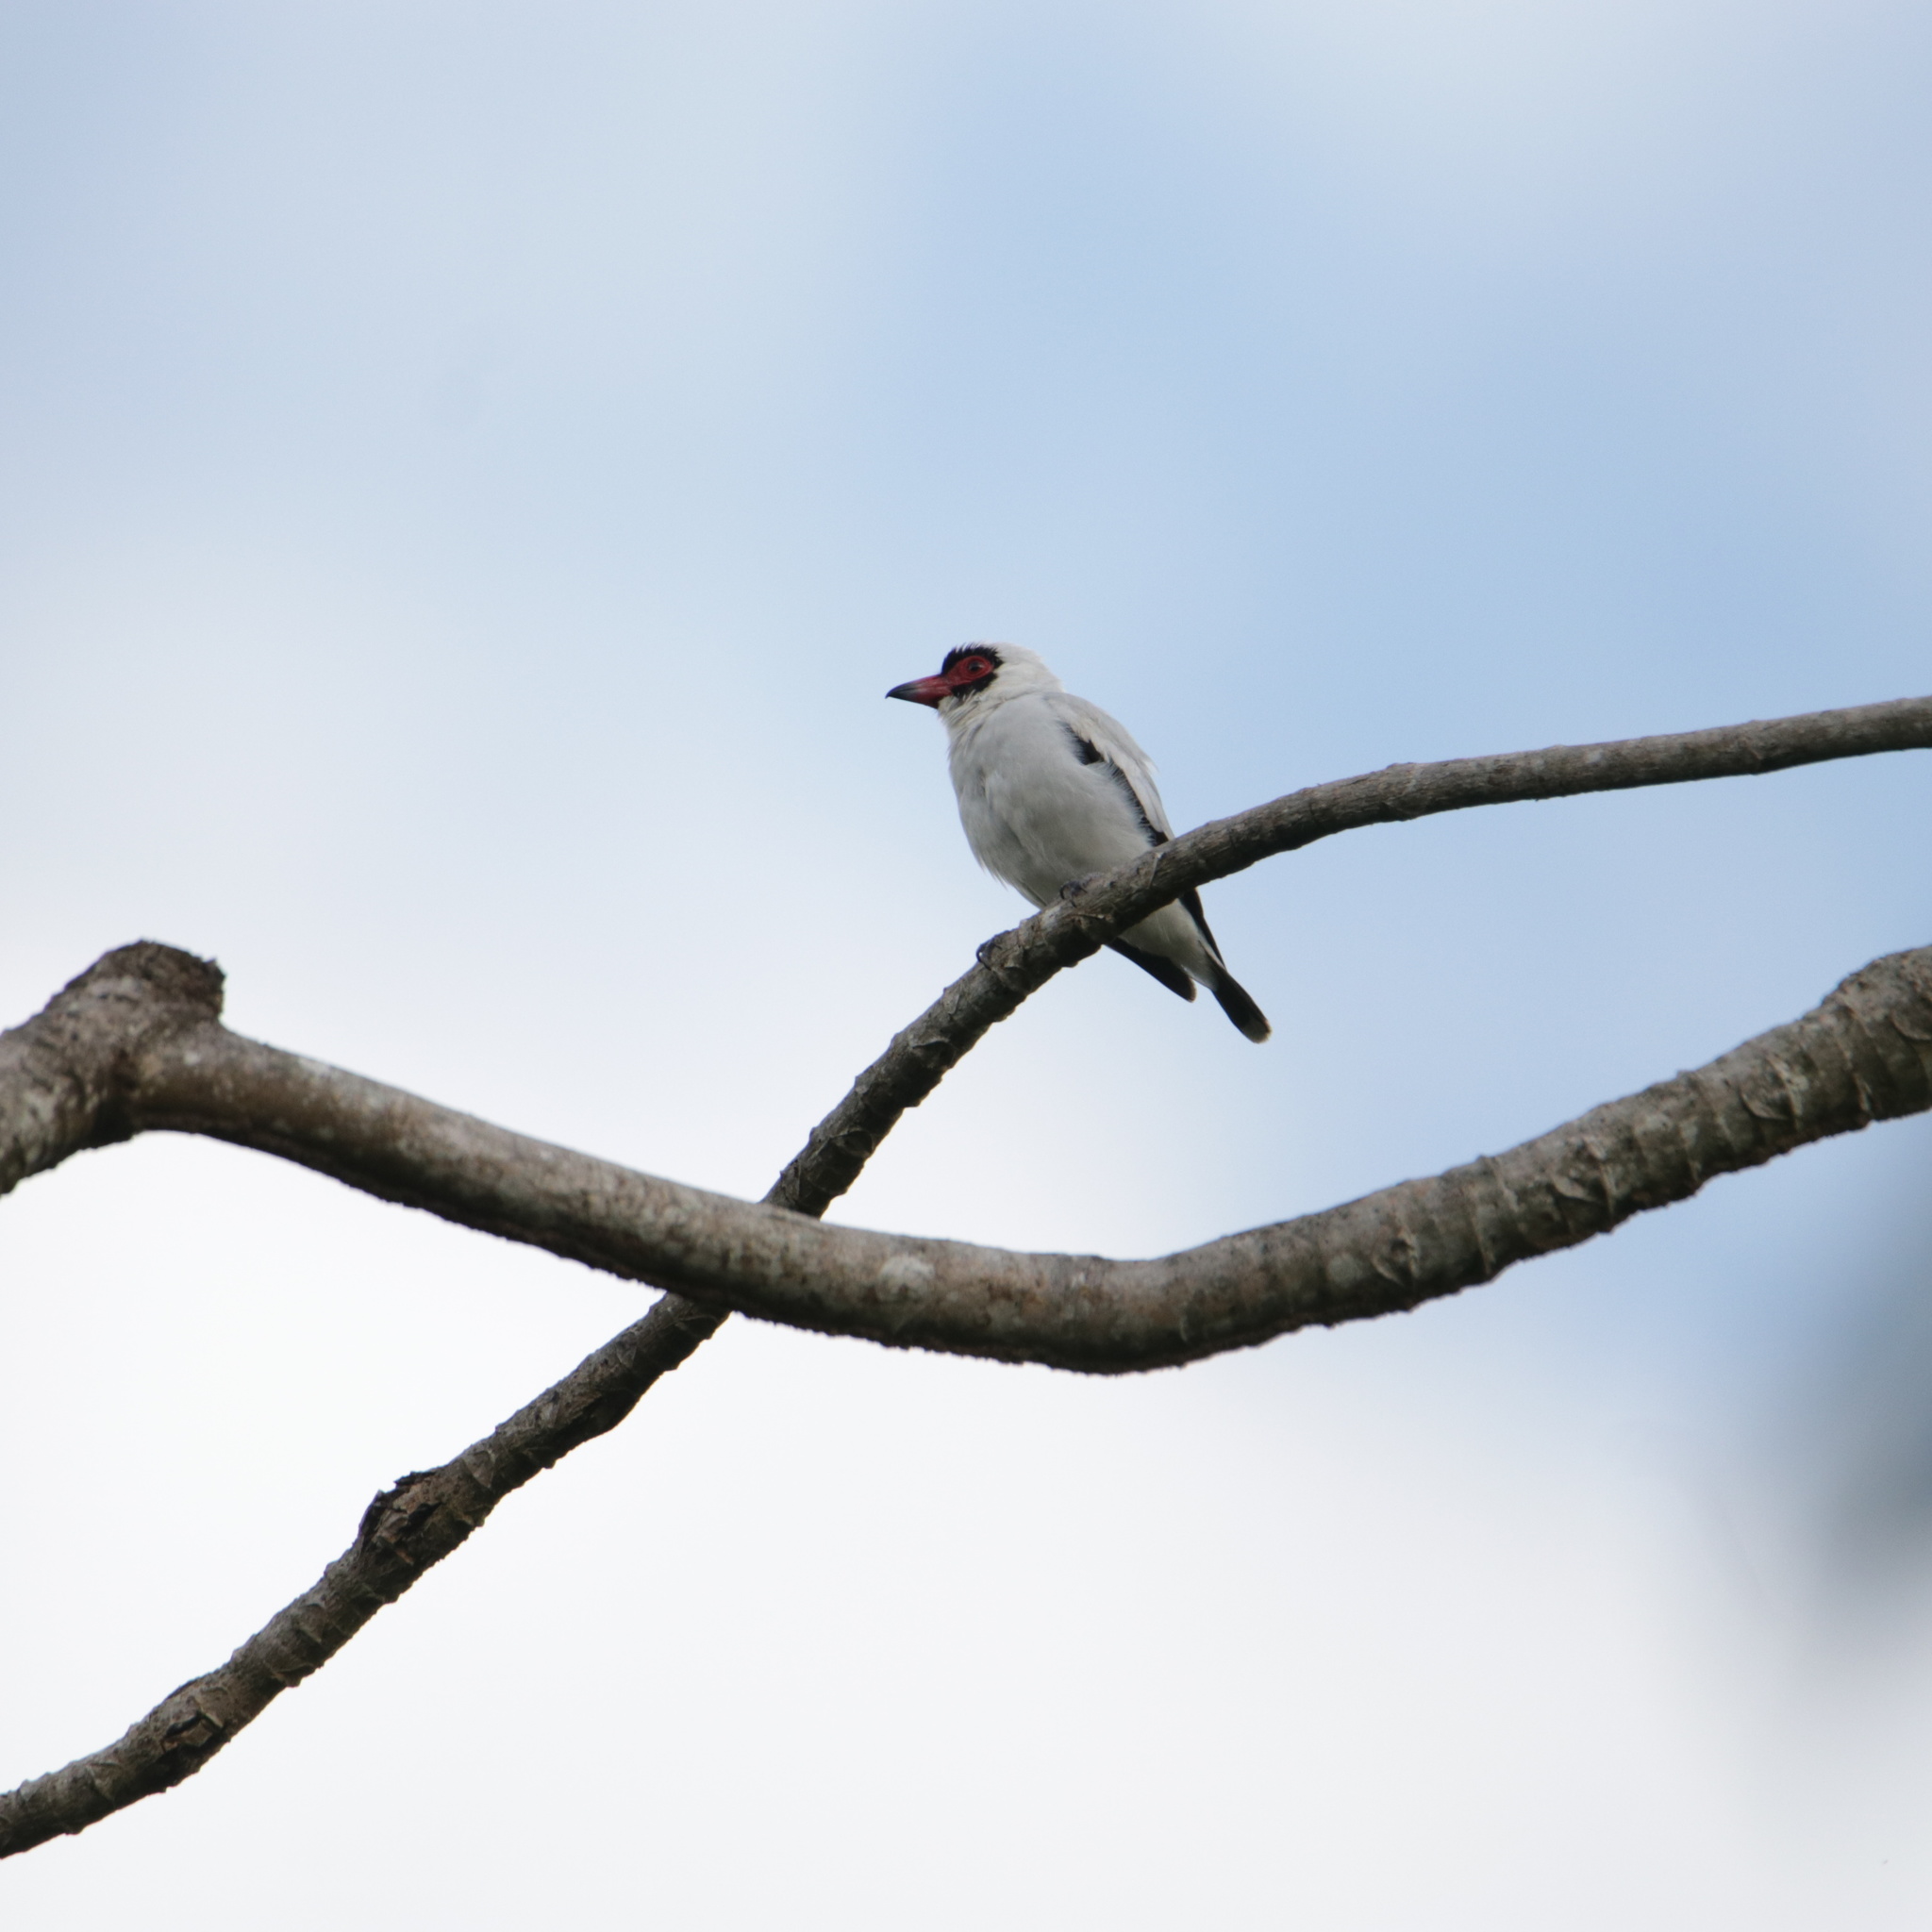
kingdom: Animalia
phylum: Chordata
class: Aves
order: Passeriformes
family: Cotingidae
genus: Tityra
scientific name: Tityra semifasciata
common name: Masked tityra
